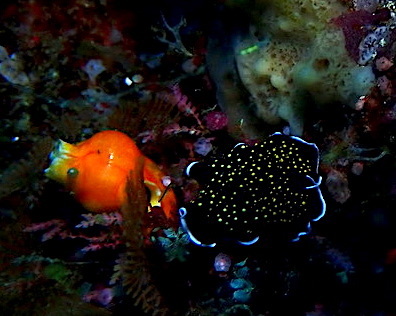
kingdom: Animalia
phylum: Platyhelminthes
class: Turbellaria
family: Pseudocerotidae
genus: Thysanozoon
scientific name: Thysanozoon nigropapillosum
